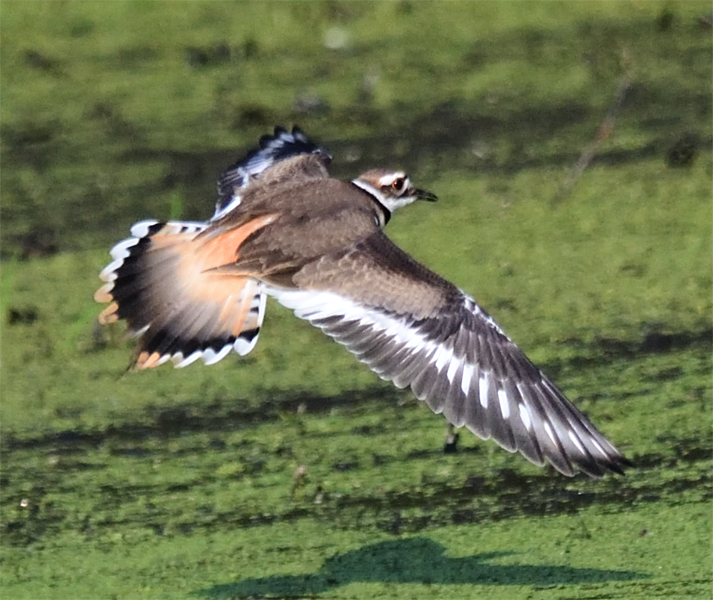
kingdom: Animalia
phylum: Chordata
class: Aves
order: Charadriiformes
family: Charadriidae
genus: Charadrius
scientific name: Charadrius vociferus
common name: Killdeer
